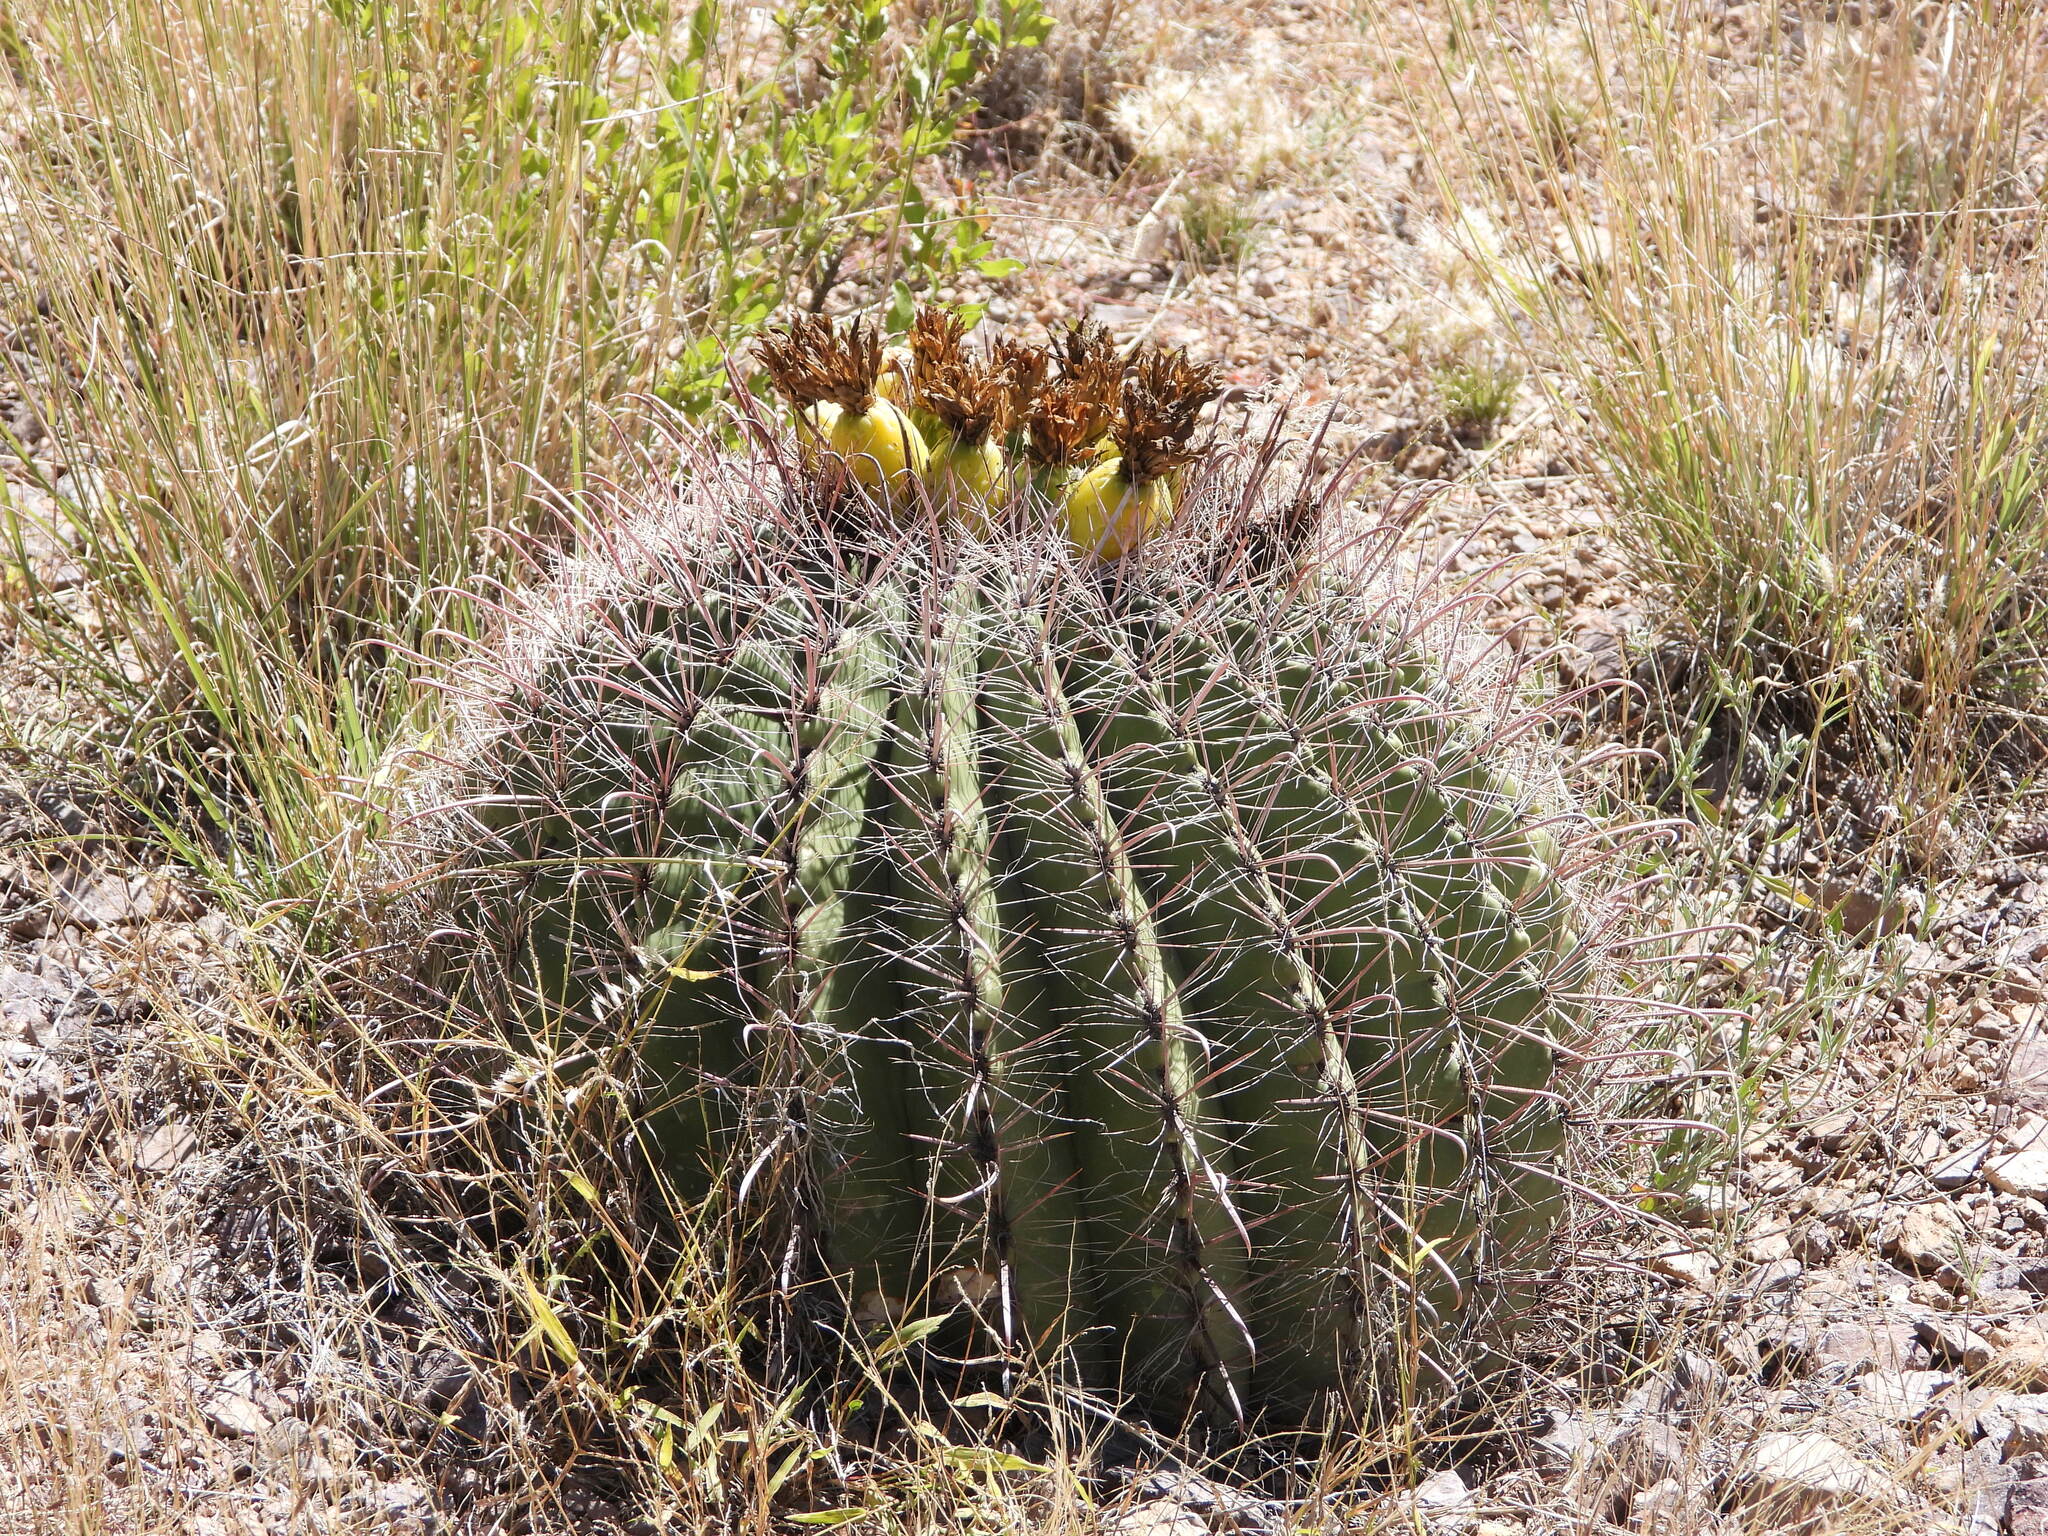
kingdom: Plantae
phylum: Tracheophyta
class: Magnoliopsida
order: Caryophyllales
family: Cactaceae
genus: Ferocactus
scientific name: Ferocactus wislizeni
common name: Candy barrel cactus
